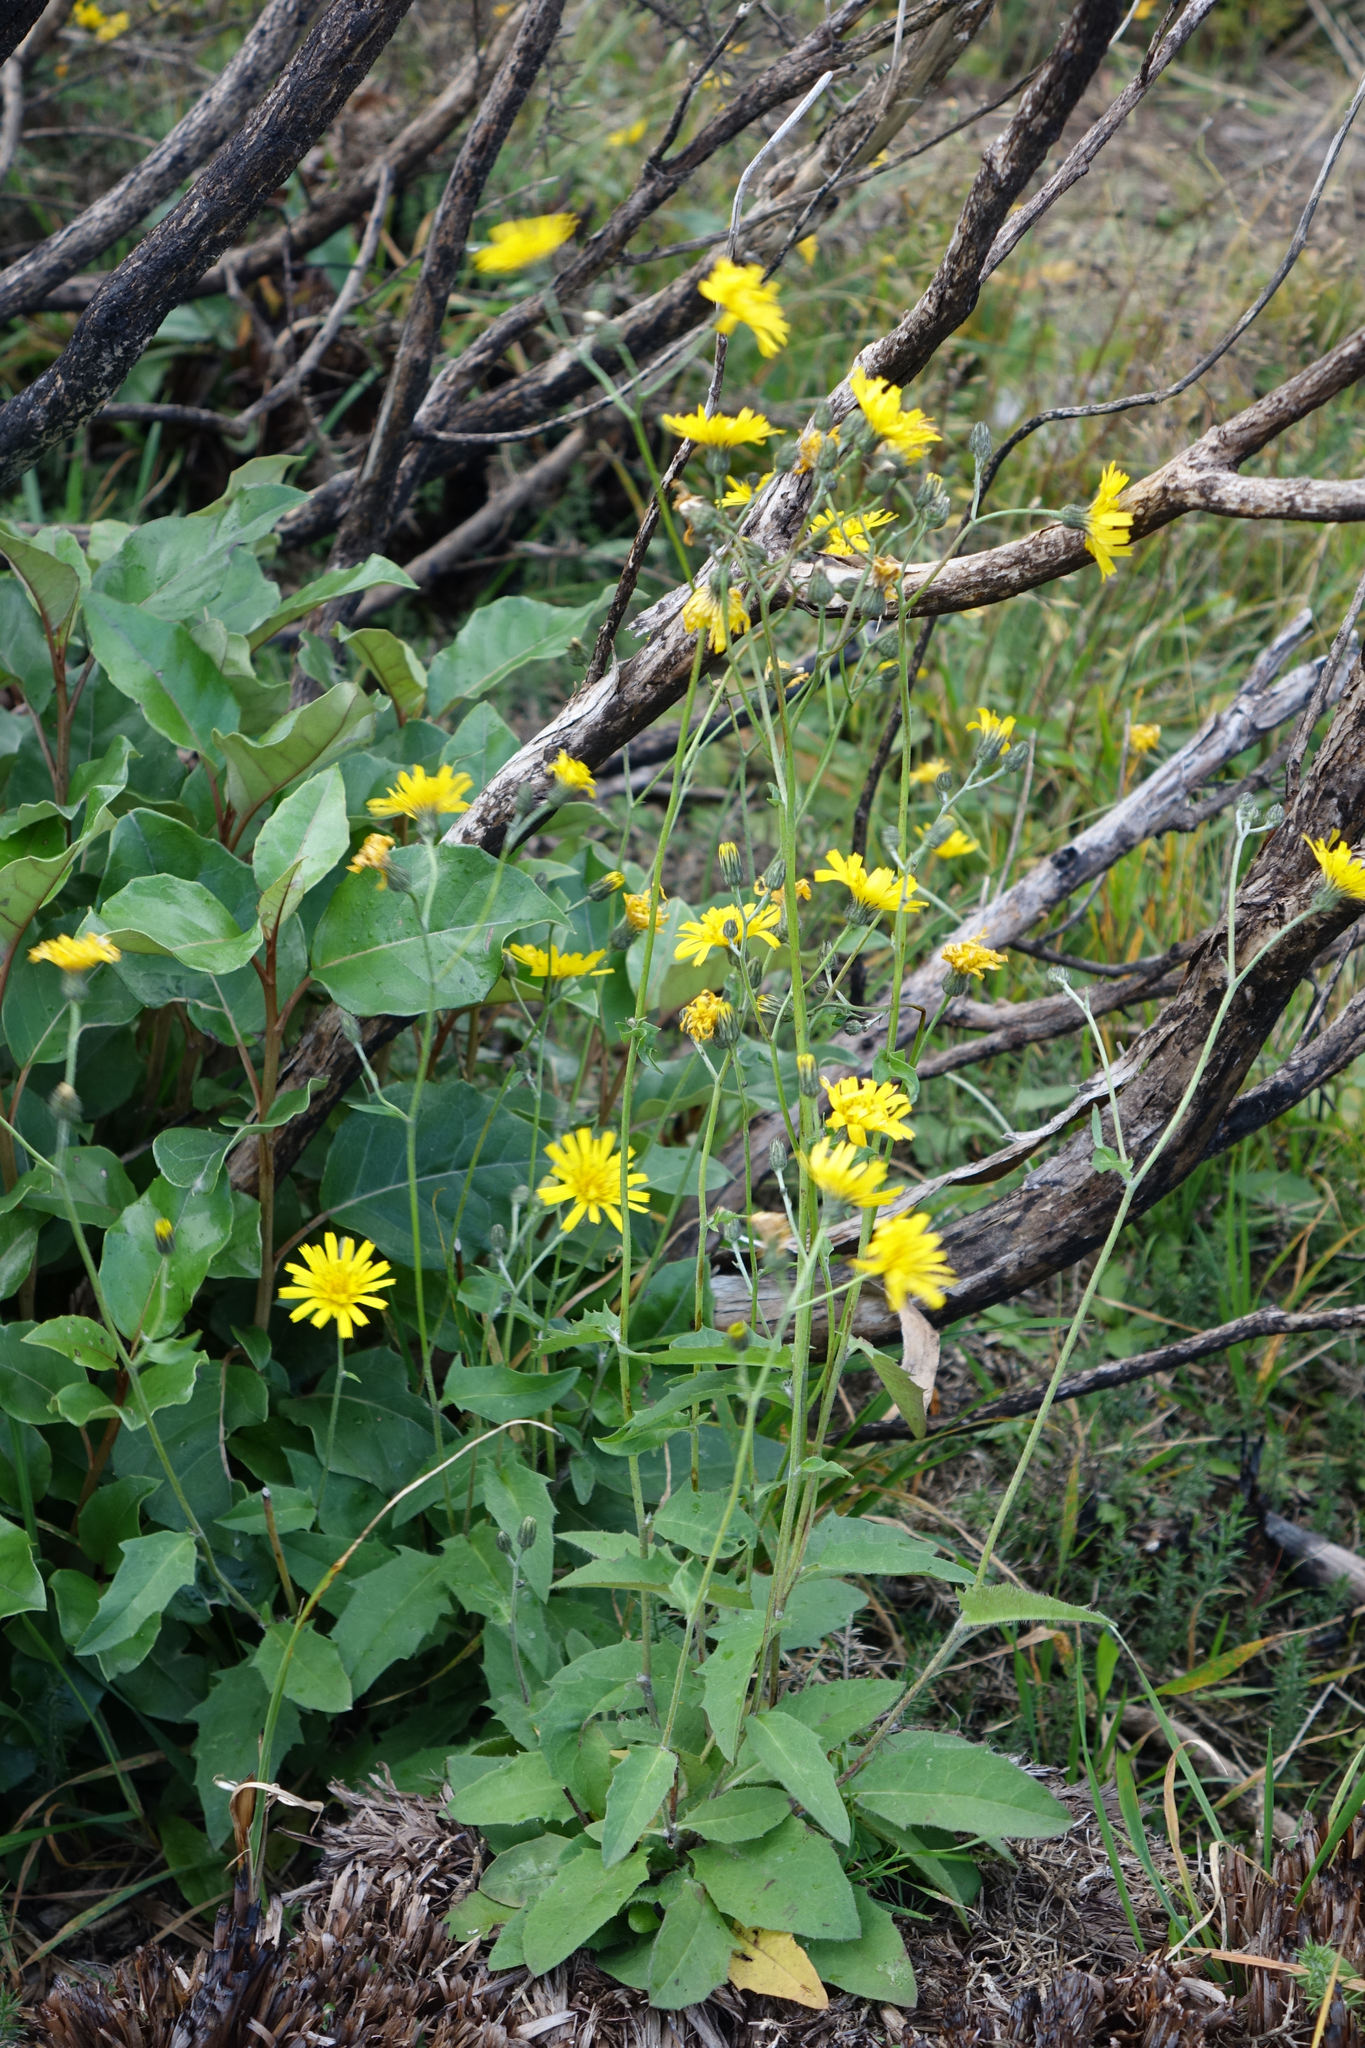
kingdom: Plantae
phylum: Tracheophyta
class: Magnoliopsida
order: Asterales
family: Asteraceae
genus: Hieracium
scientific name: Hieracium lepidulum
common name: Irregular-toothed hawkweed
